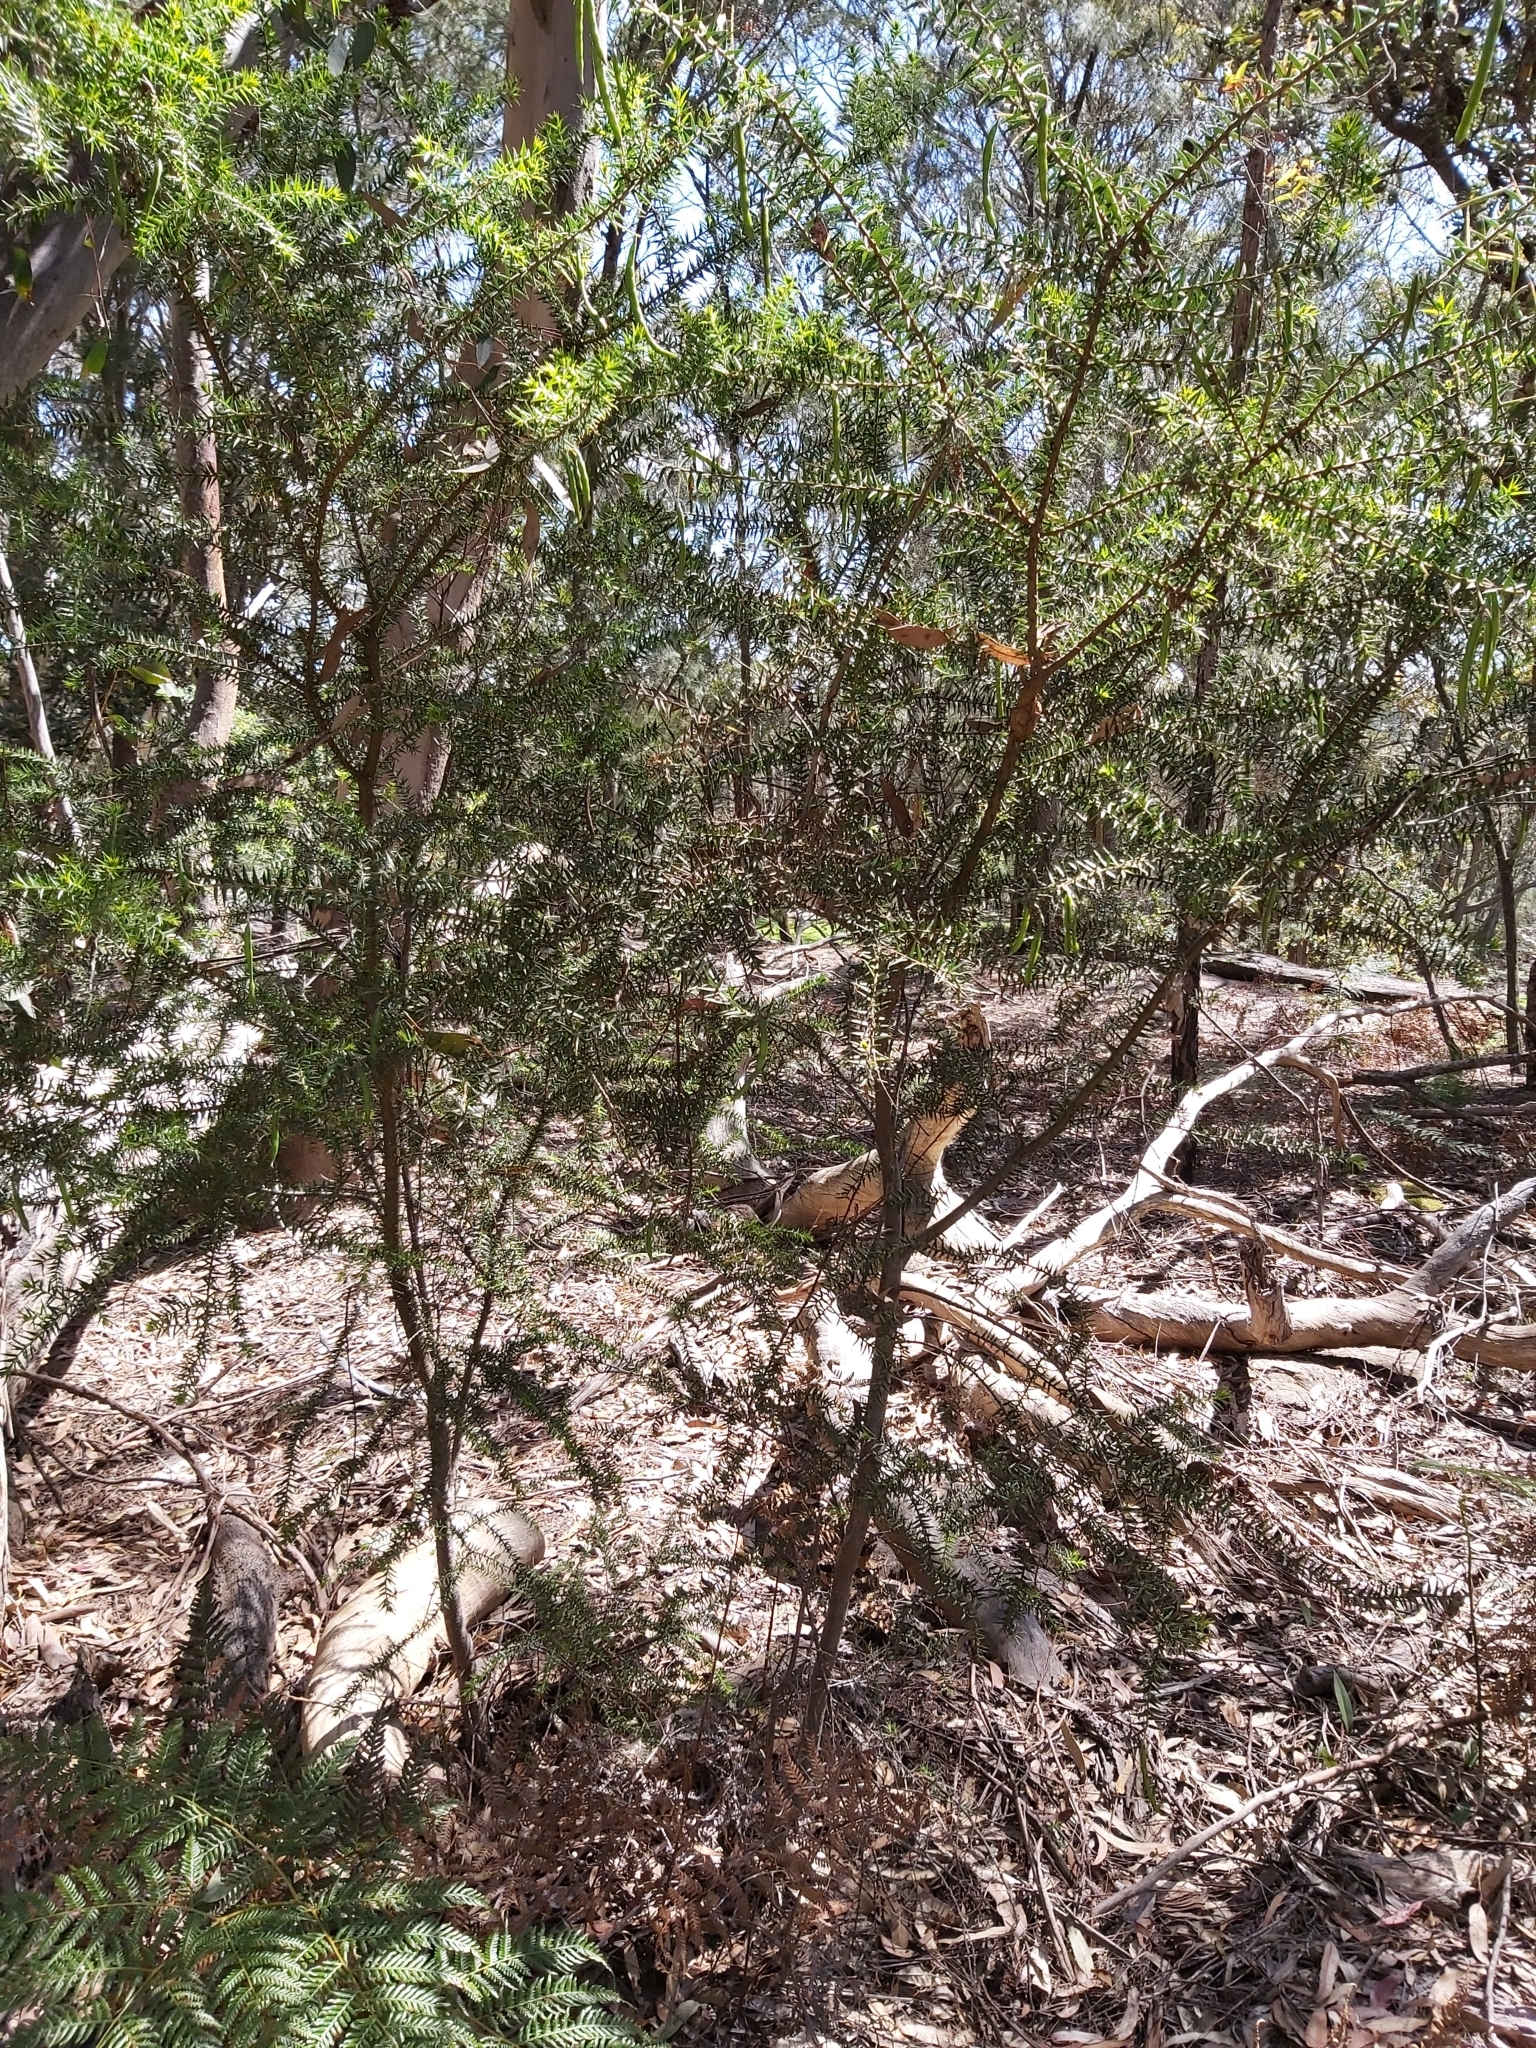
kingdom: Plantae
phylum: Tracheophyta
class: Magnoliopsida
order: Fabales
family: Fabaceae
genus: Acacia
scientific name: Acacia oxycedrus
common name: Spike wattle
